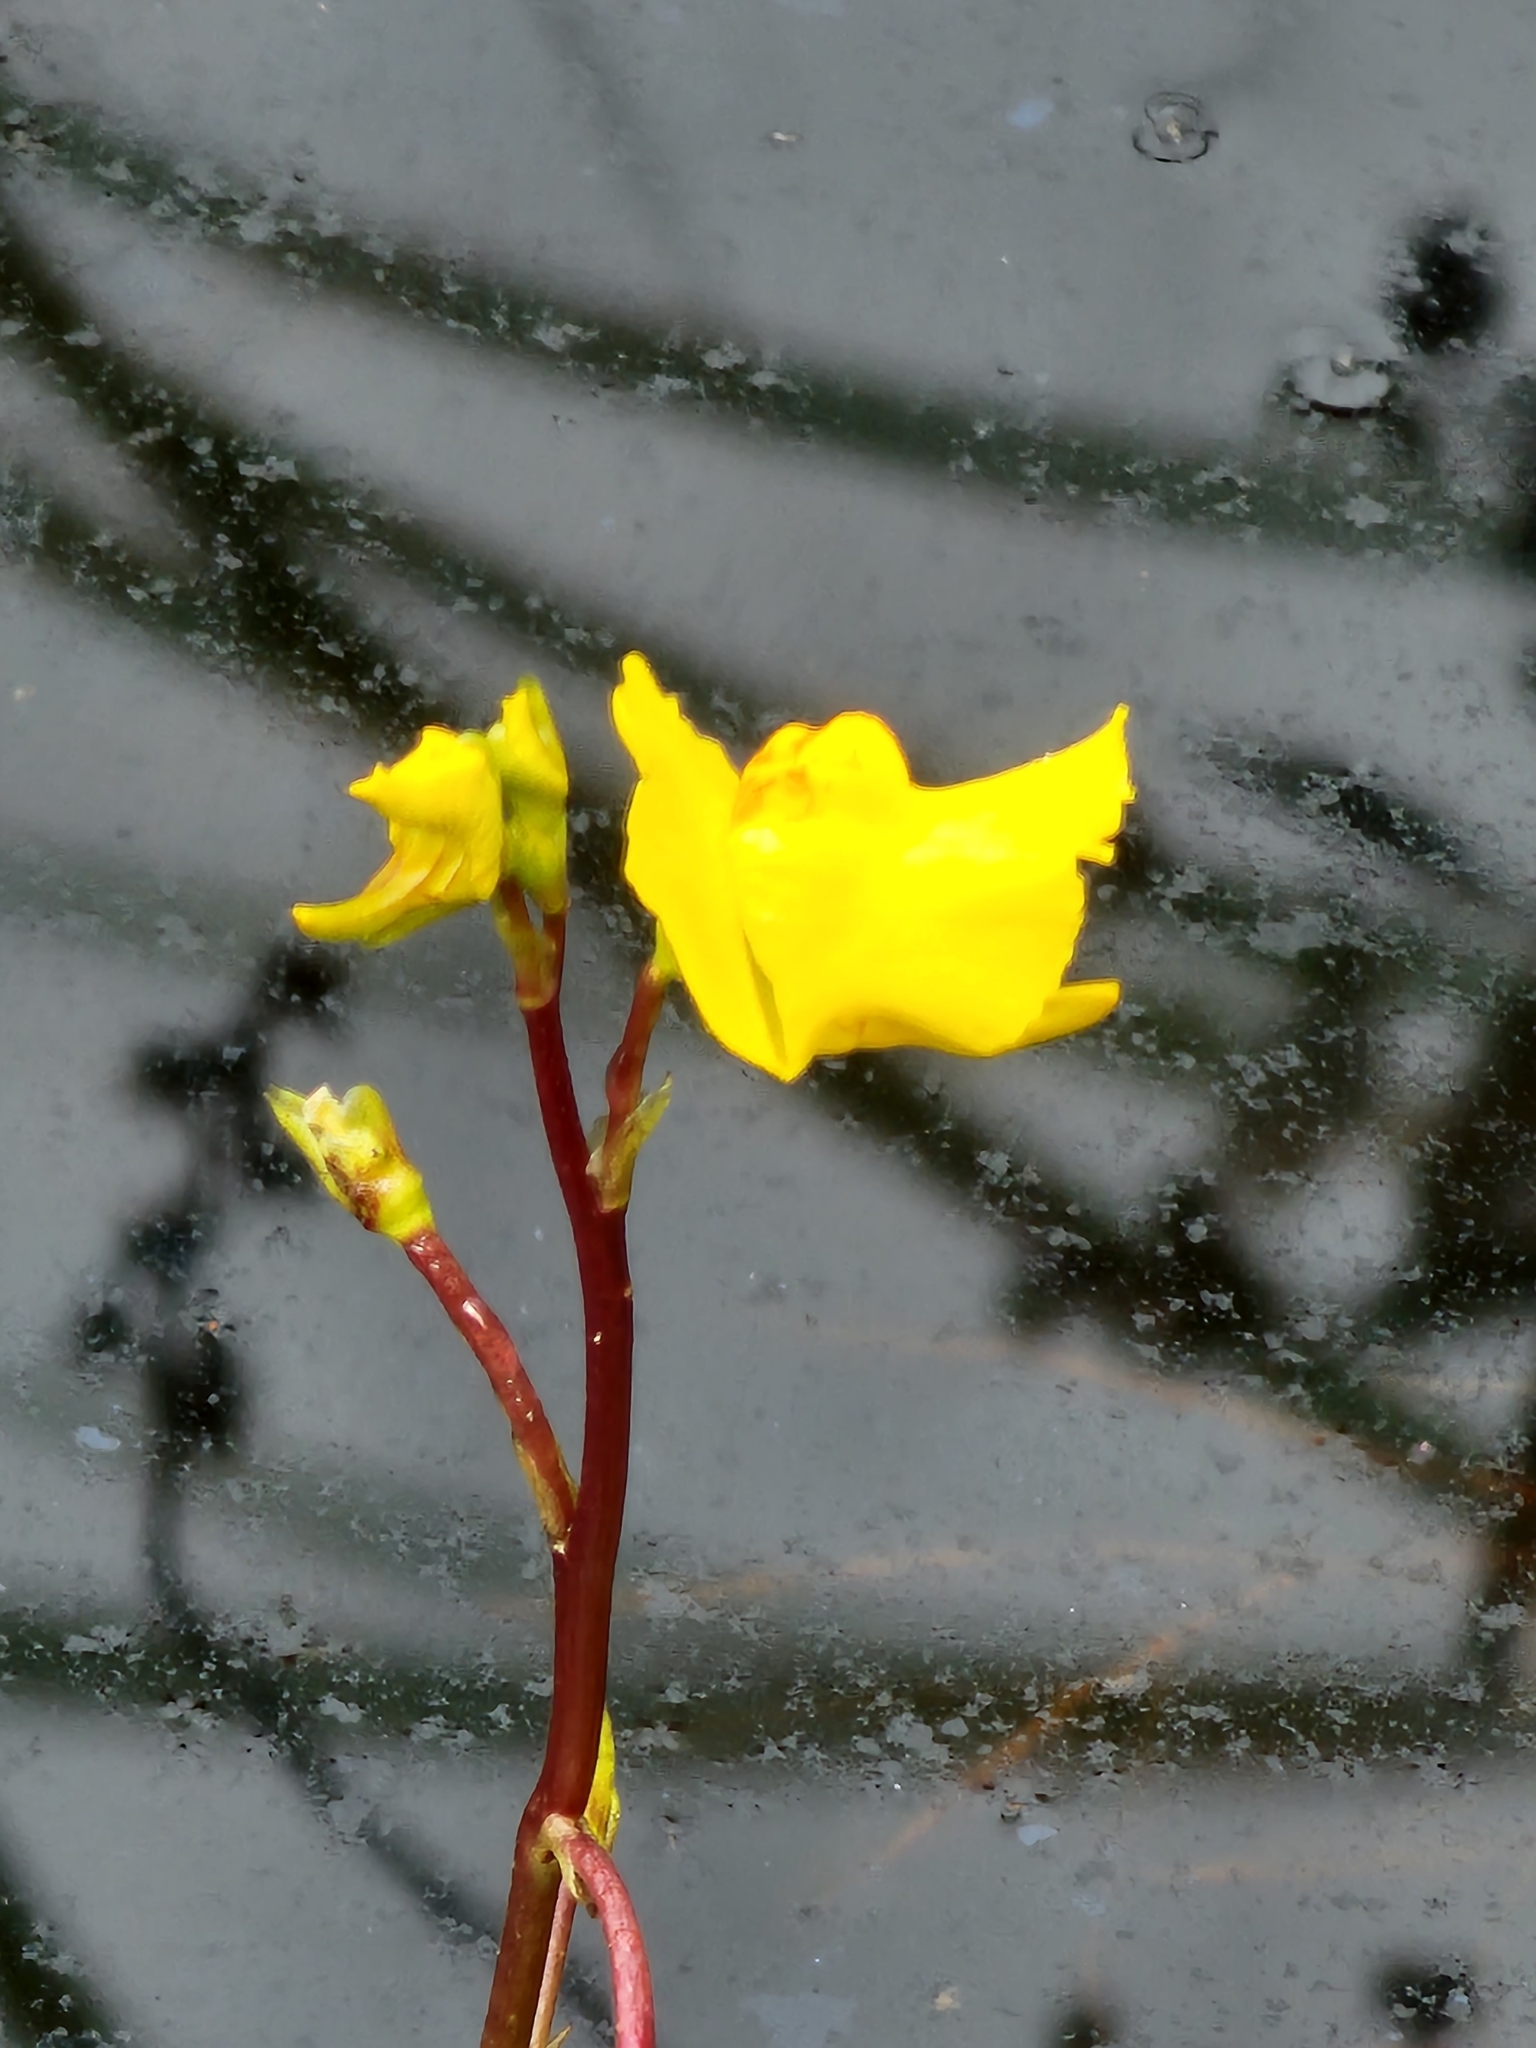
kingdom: Plantae
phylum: Tracheophyta
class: Magnoliopsida
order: Lamiales
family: Lentibulariaceae
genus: Utricularia
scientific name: Utricularia macrorhiza
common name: Common bladderwort
